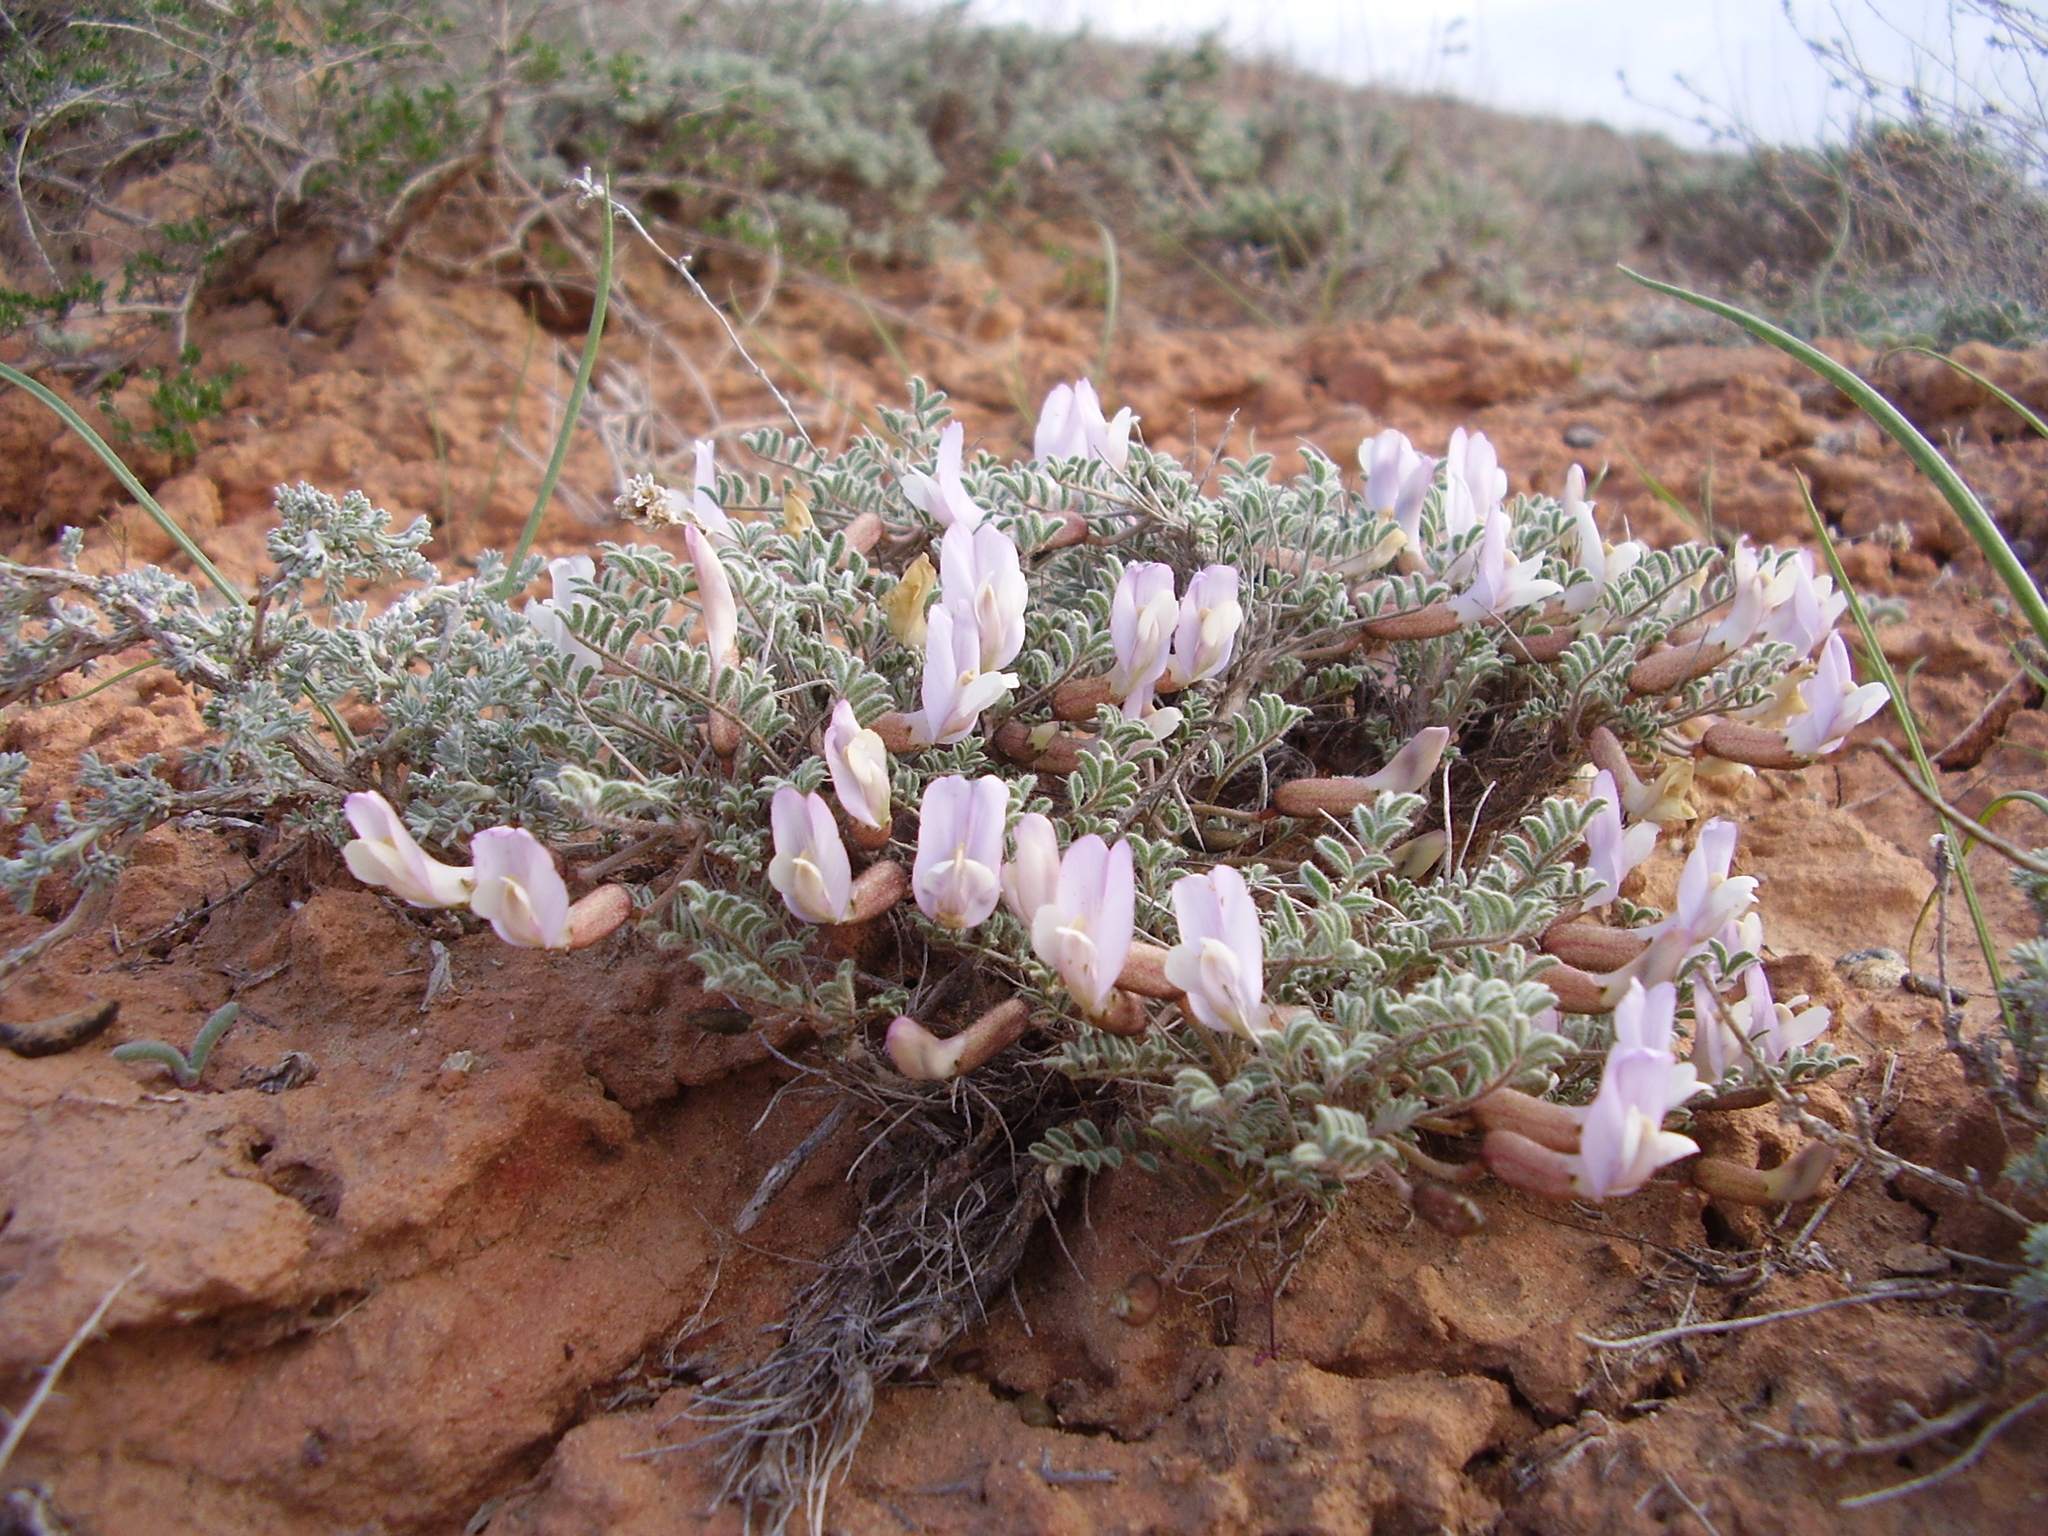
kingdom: Plantae
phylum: Tracheophyta
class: Magnoliopsida
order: Fabales
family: Fabaceae
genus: Astragalus
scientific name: Astragalus pallasii
